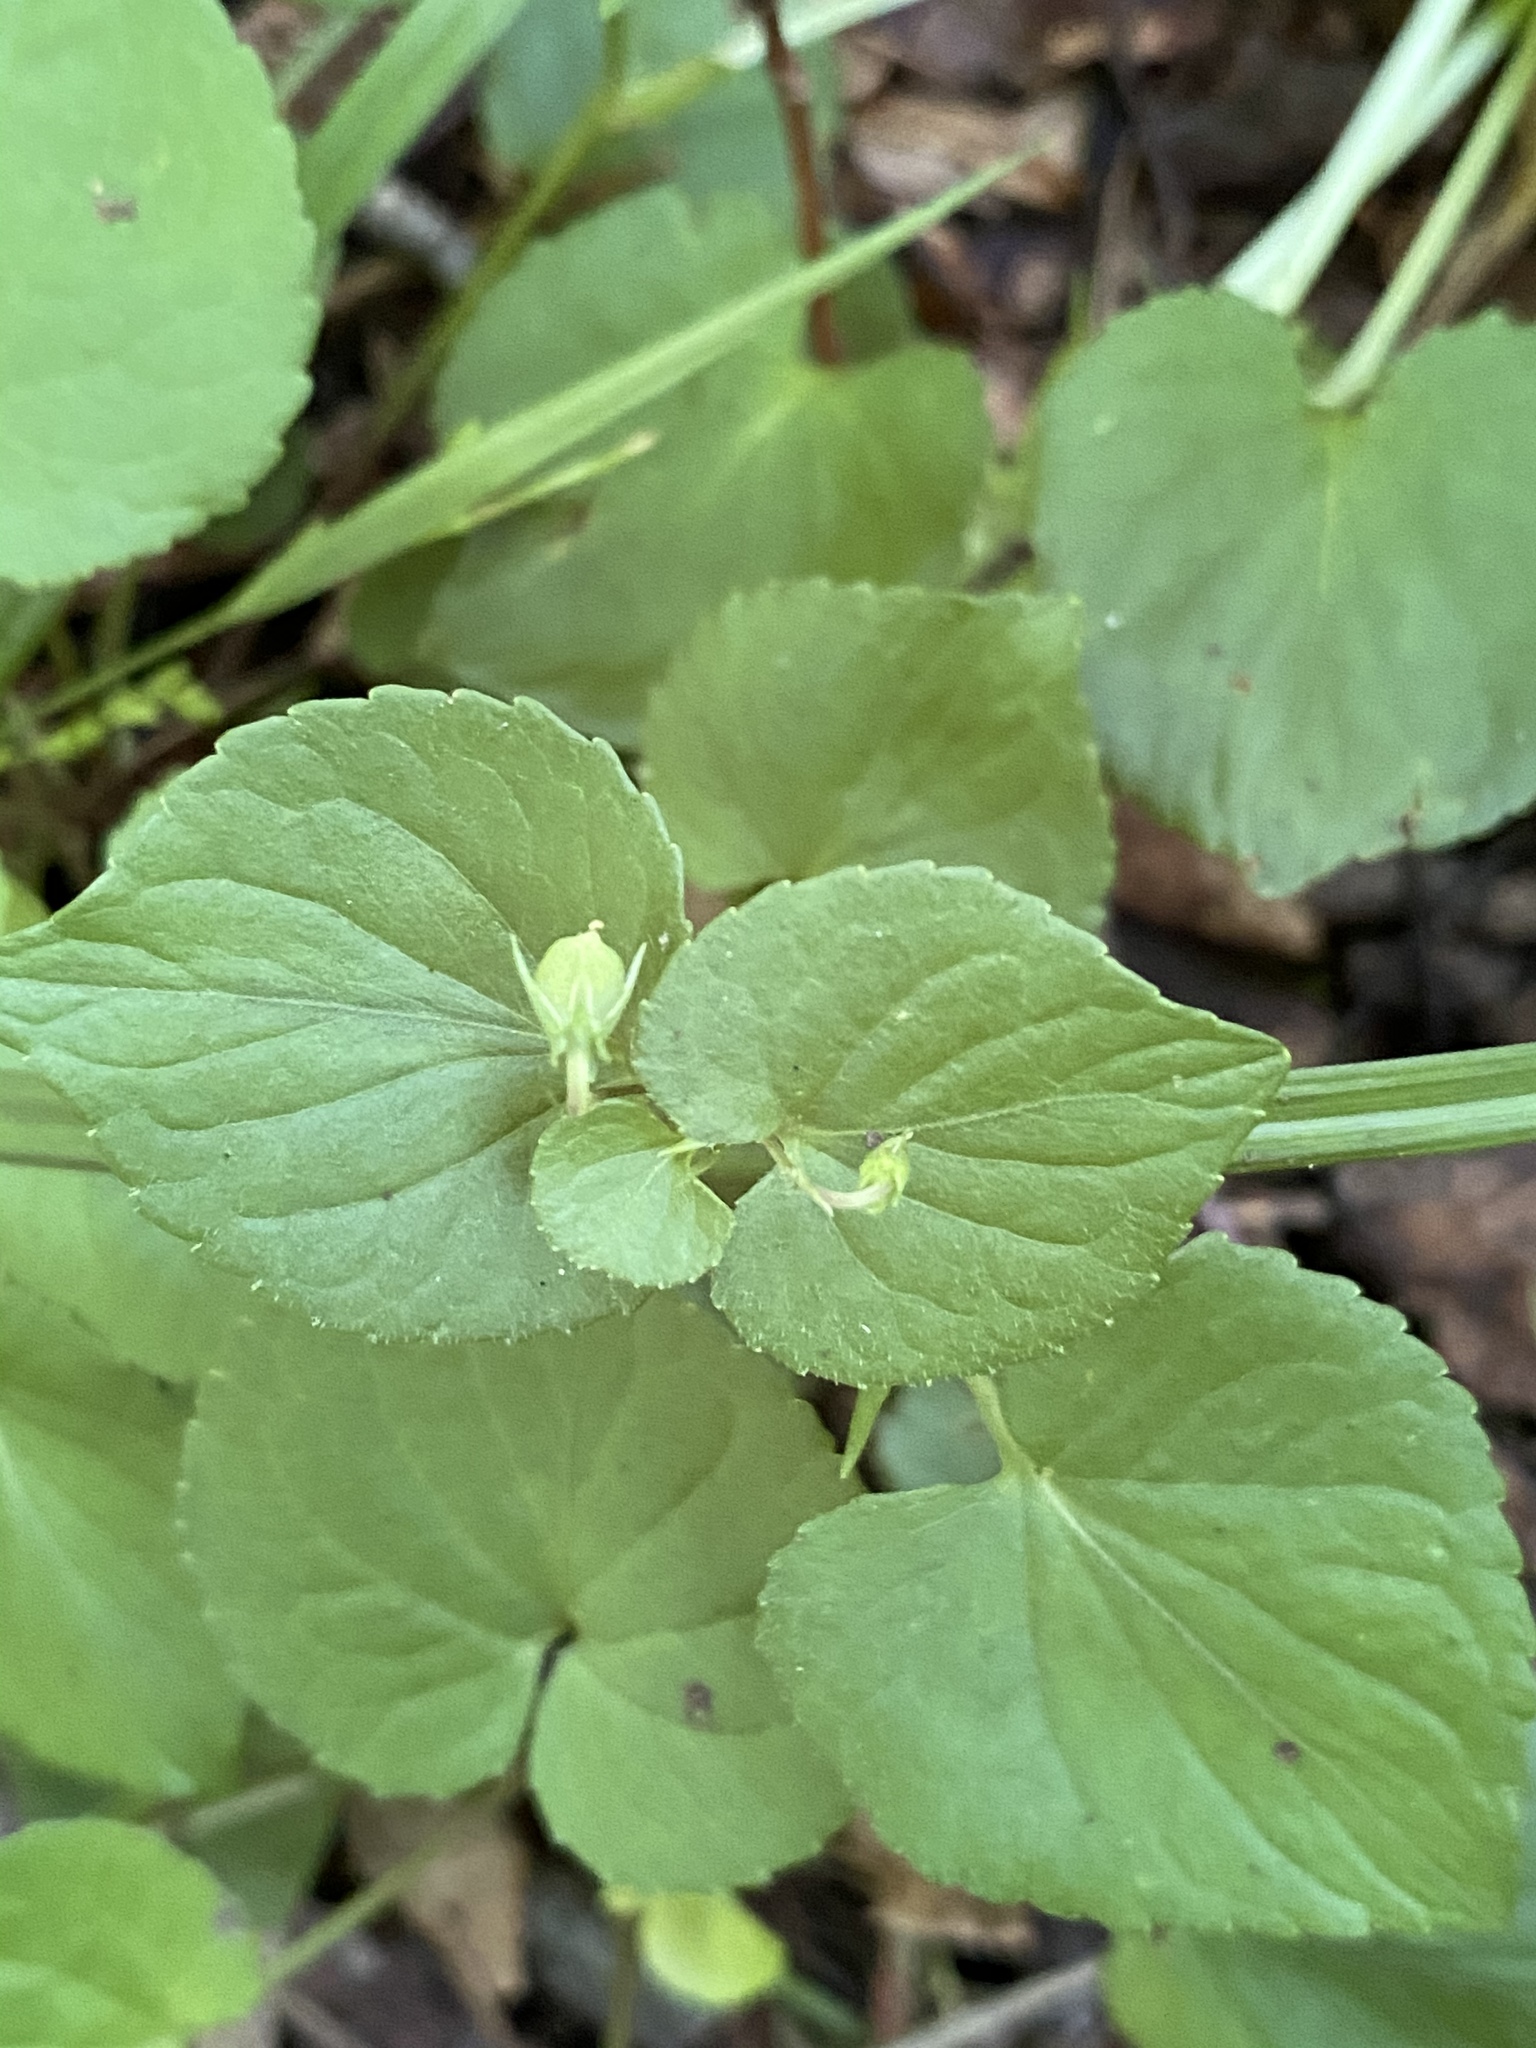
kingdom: Plantae
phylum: Tracheophyta
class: Magnoliopsida
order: Malpighiales
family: Violaceae
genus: Viola
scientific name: Viola striata
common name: Cream violet
